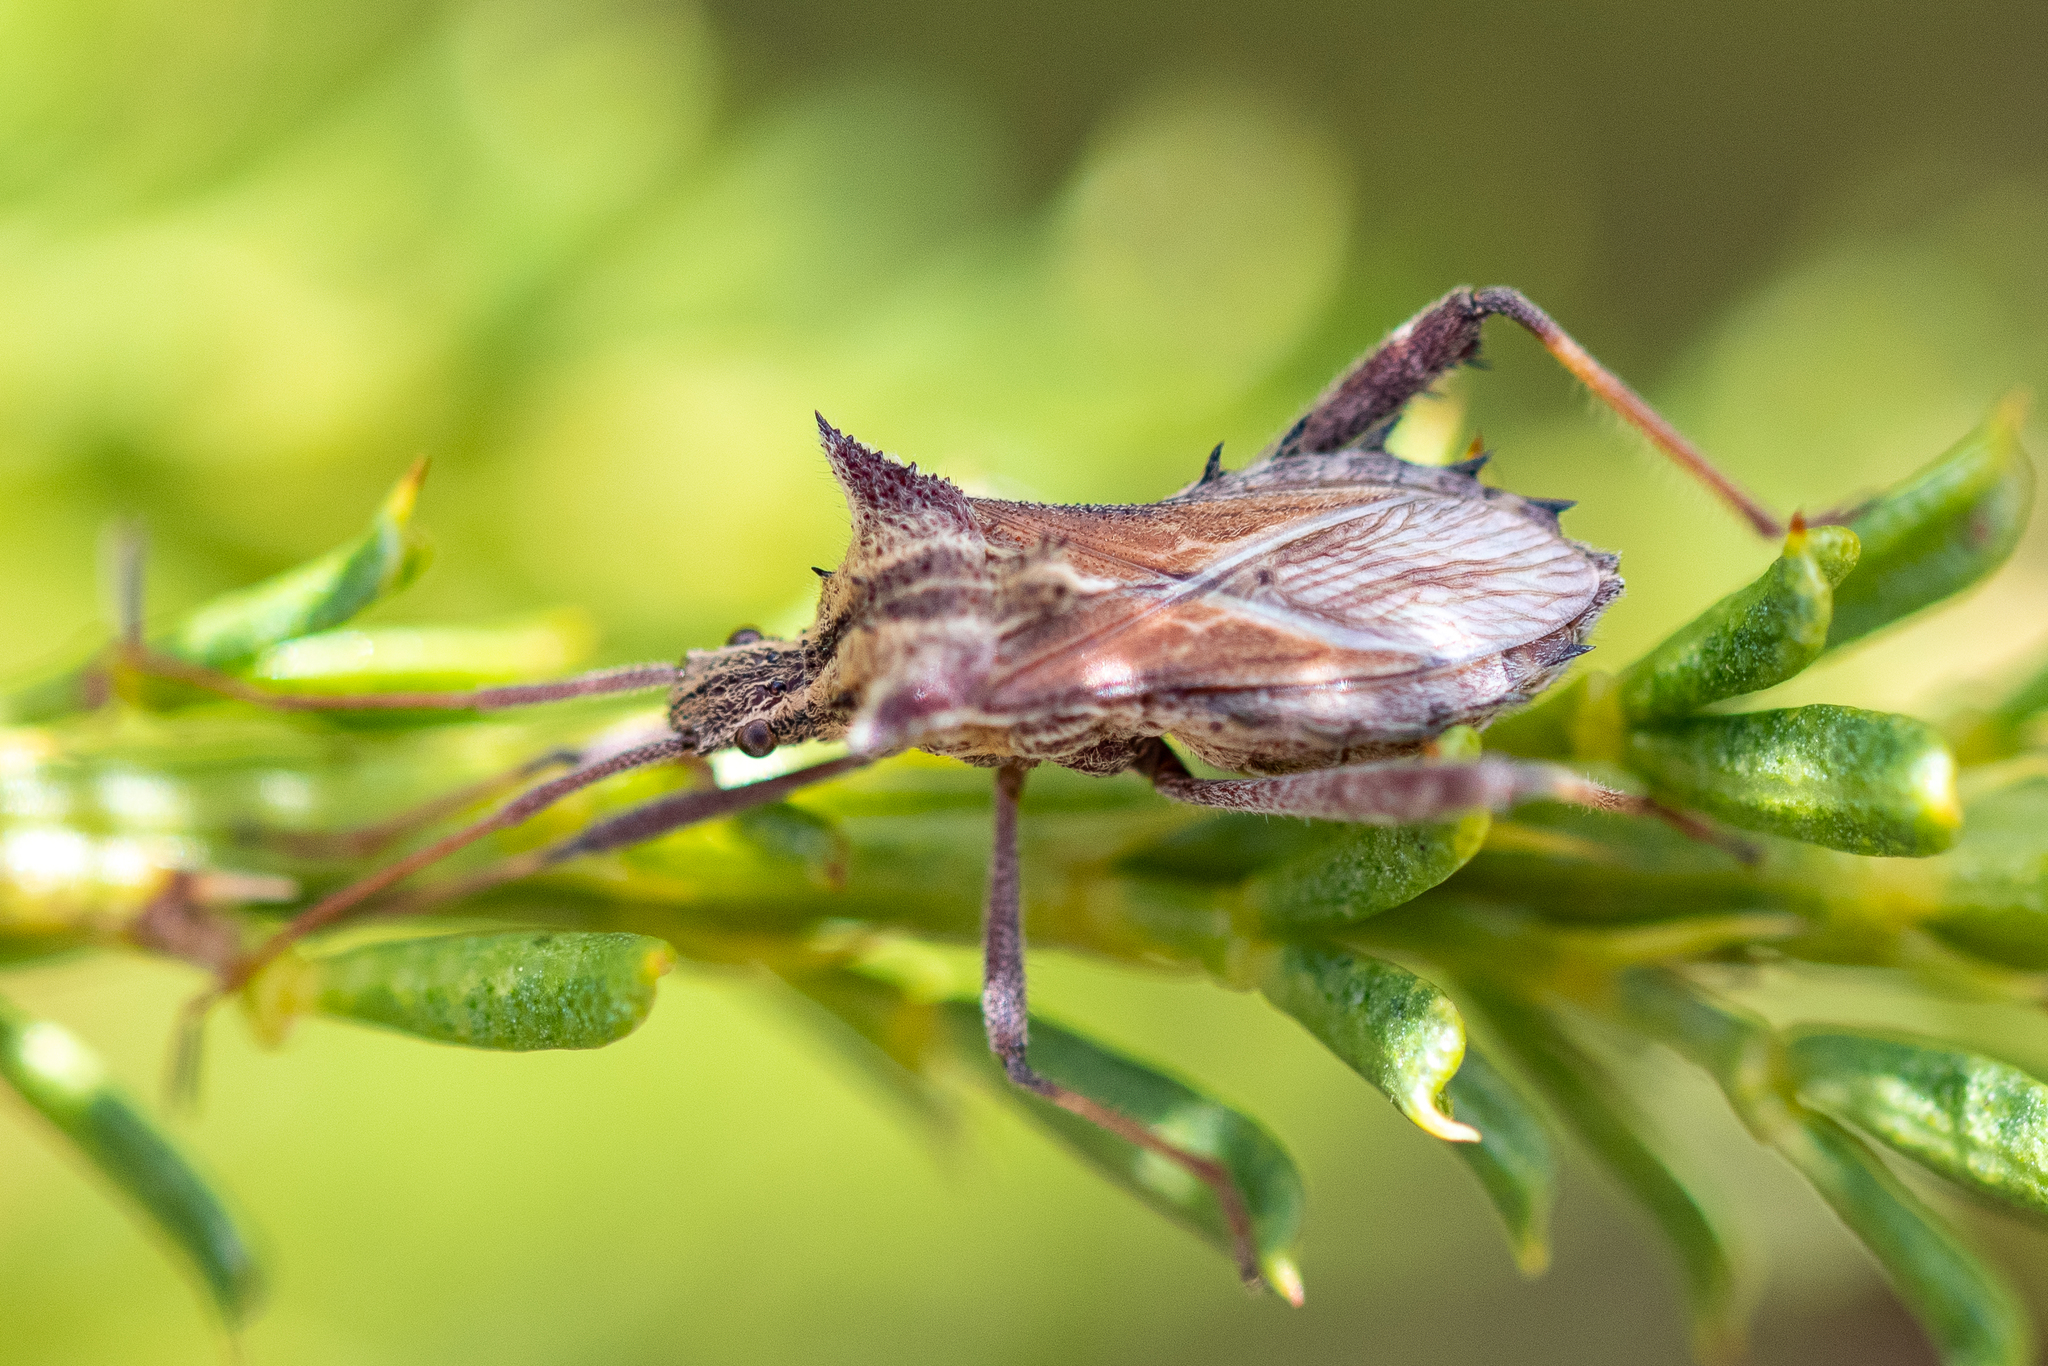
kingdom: Animalia
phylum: Arthropoda
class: Insecta
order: Hemiptera
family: Coreidae
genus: Clavigralla
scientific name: Clavigralla horrida
